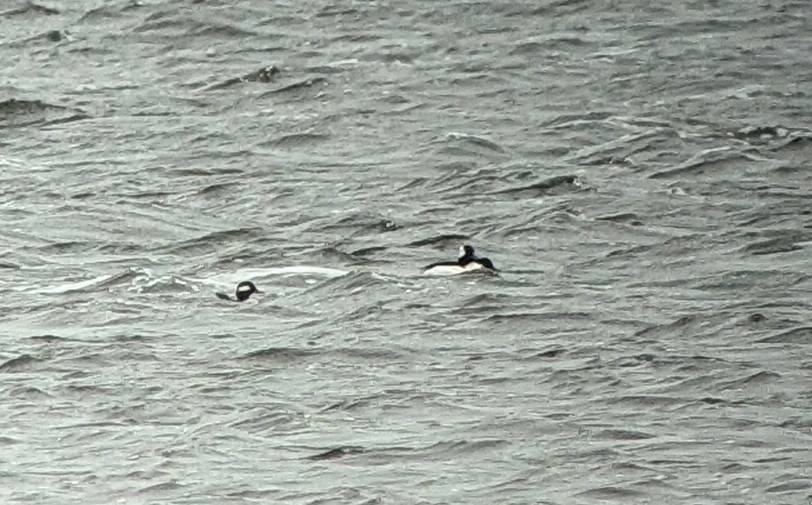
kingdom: Animalia
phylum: Chordata
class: Aves
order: Anseriformes
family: Anatidae
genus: Bucephala
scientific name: Bucephala albeola
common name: Bufflehead
